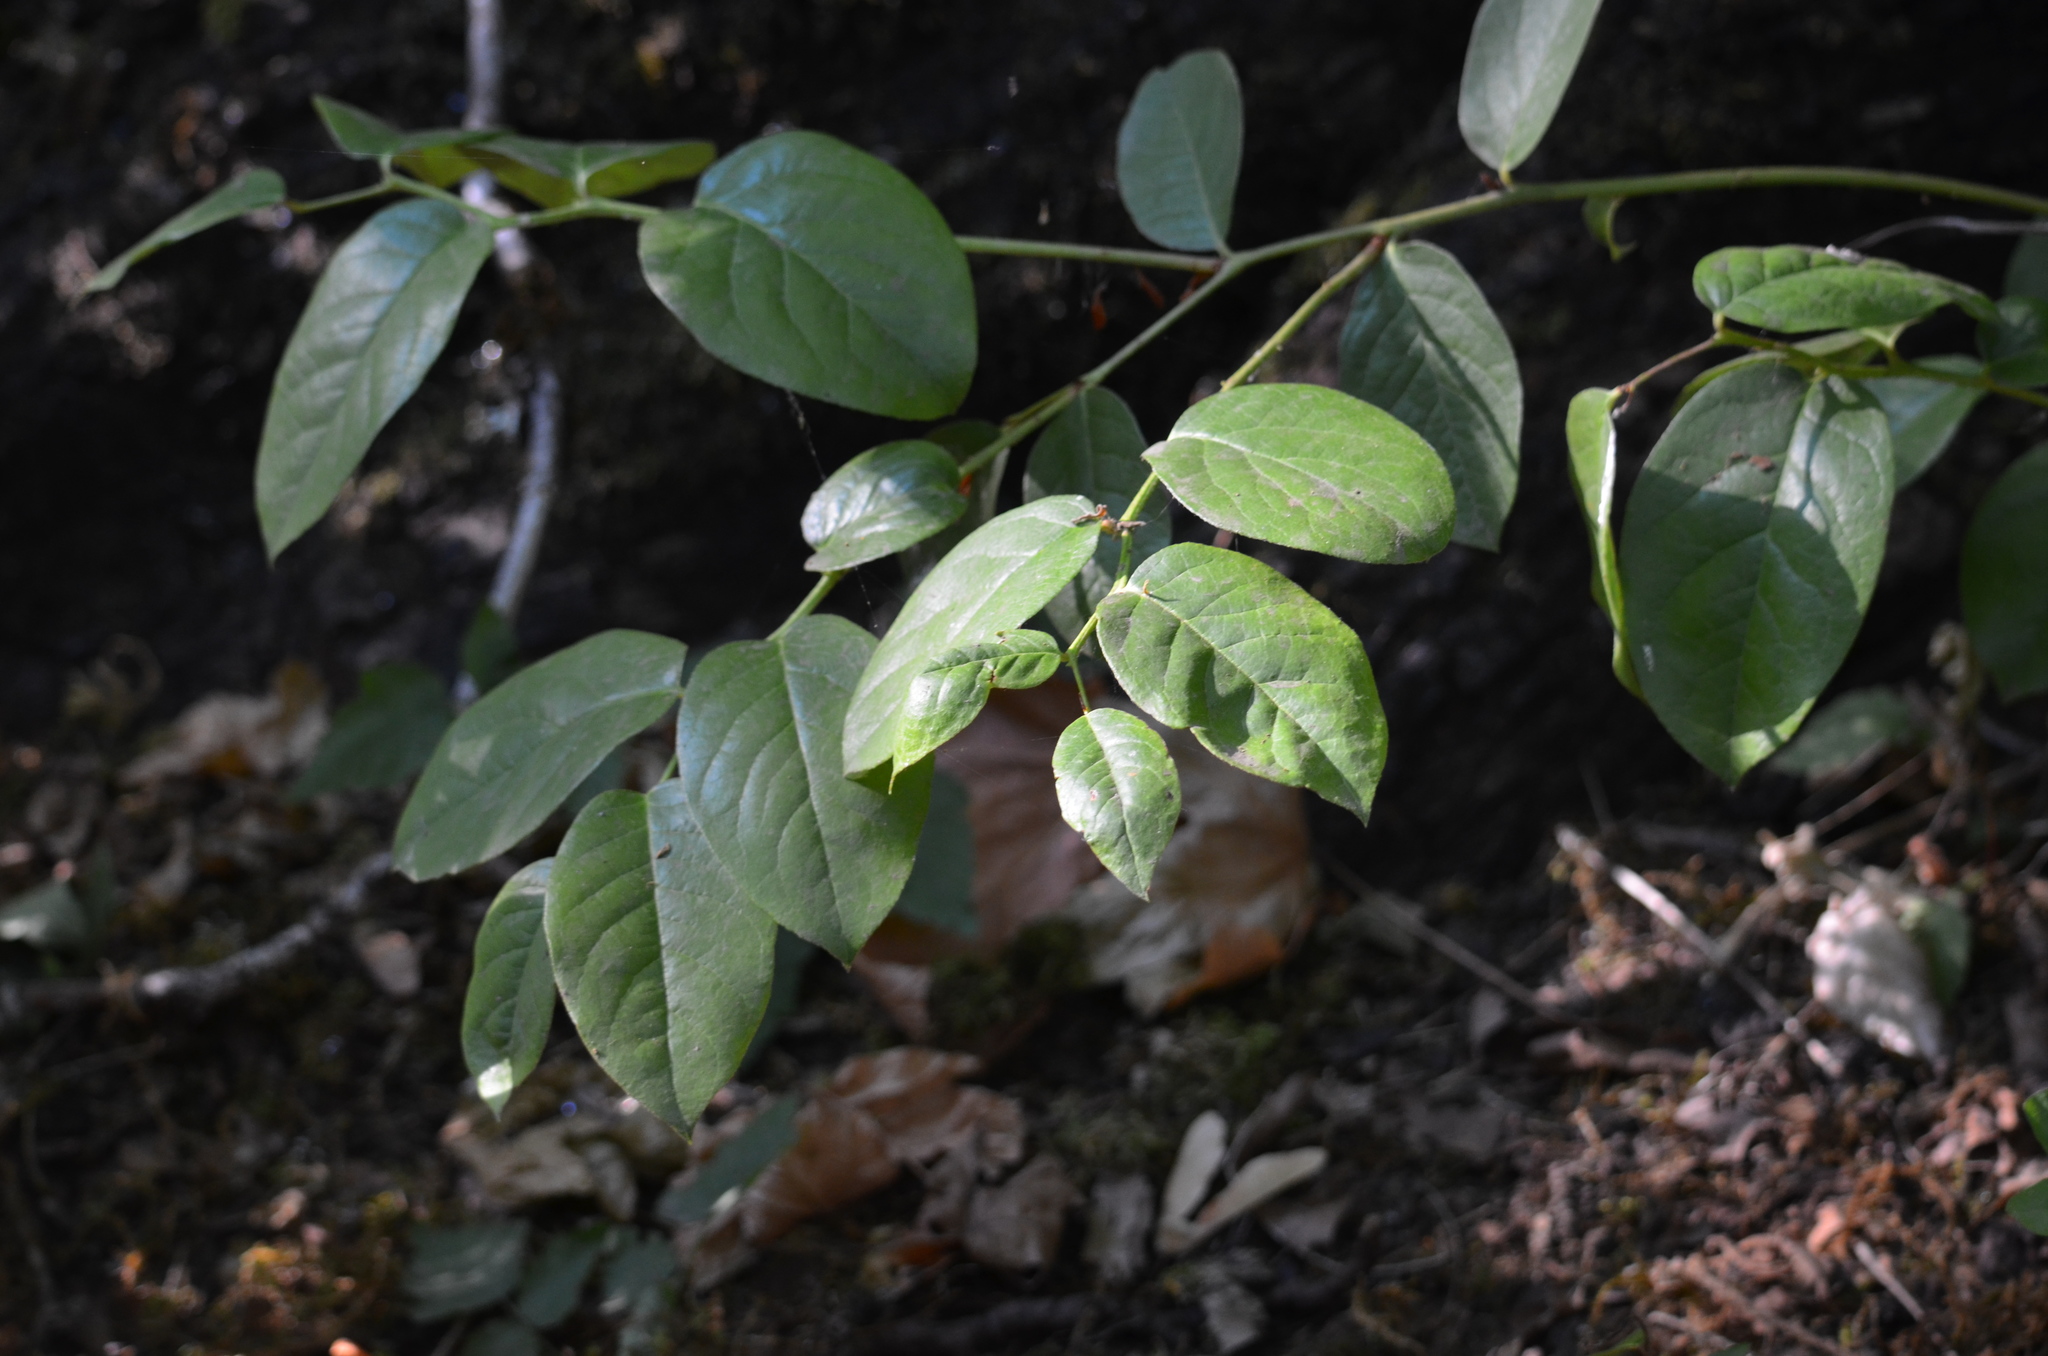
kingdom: Plantae
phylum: Tracheophyta
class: Magnoliopsida
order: Ericales
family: Ericaceae
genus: Gaultheria
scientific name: Gaultheria shallon
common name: Shallon
